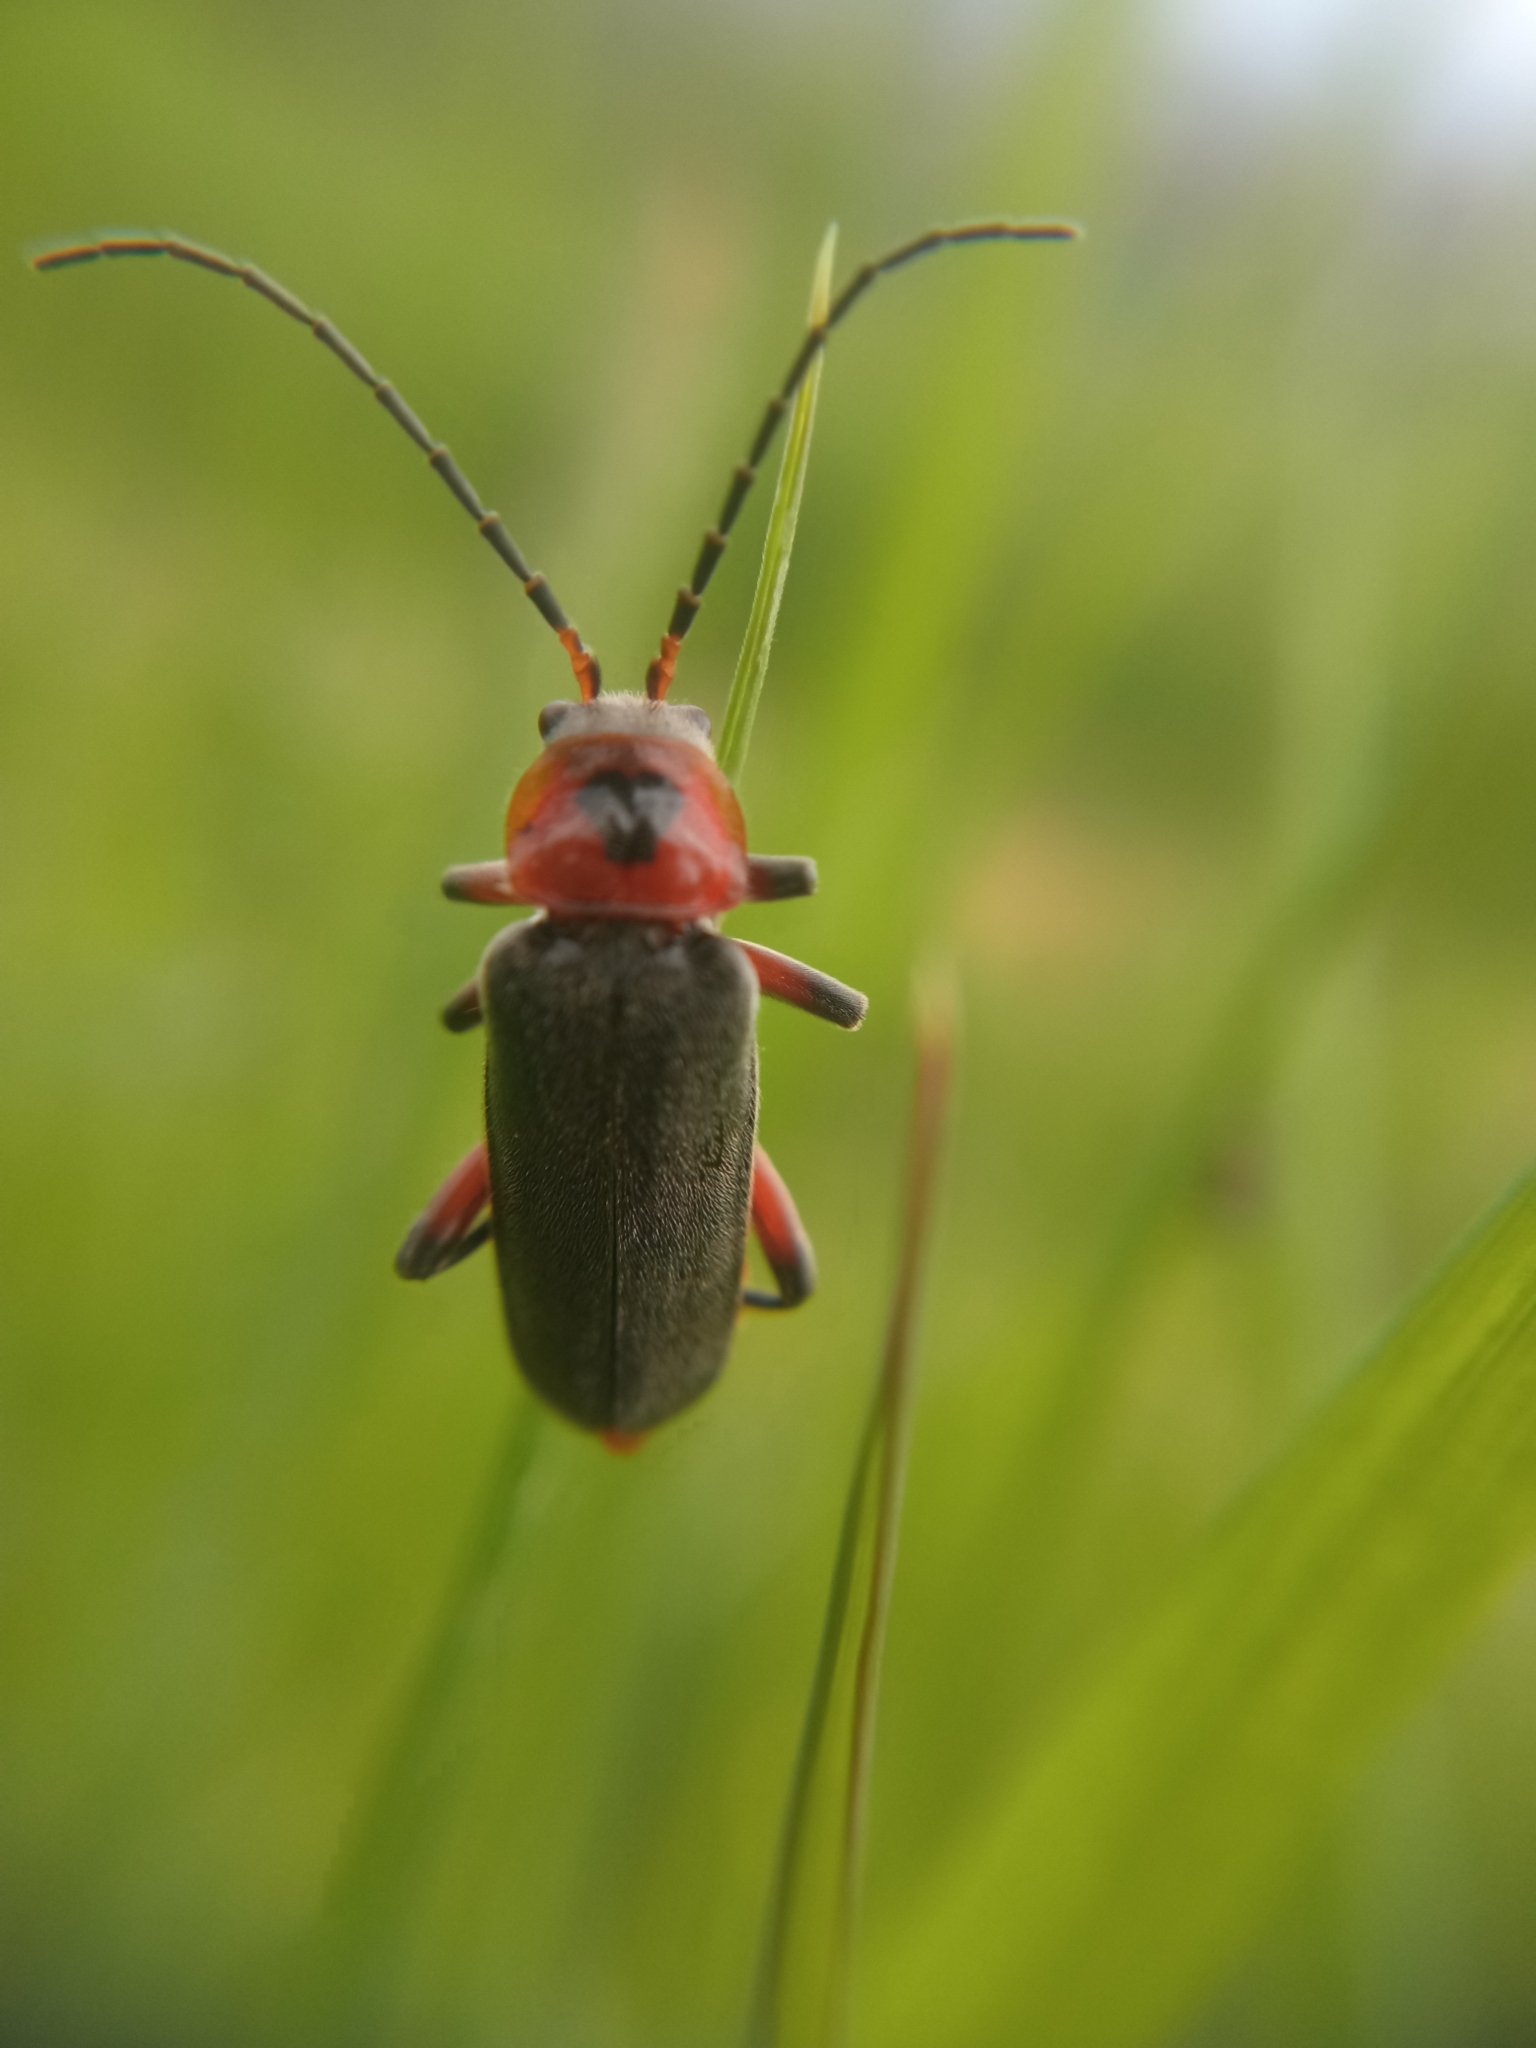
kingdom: Animalia
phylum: Arthropoda
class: Insecta
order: Coleoptera
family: Cantharidae
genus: Cantharis
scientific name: Cantharis rustica
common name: Soldier beetle
